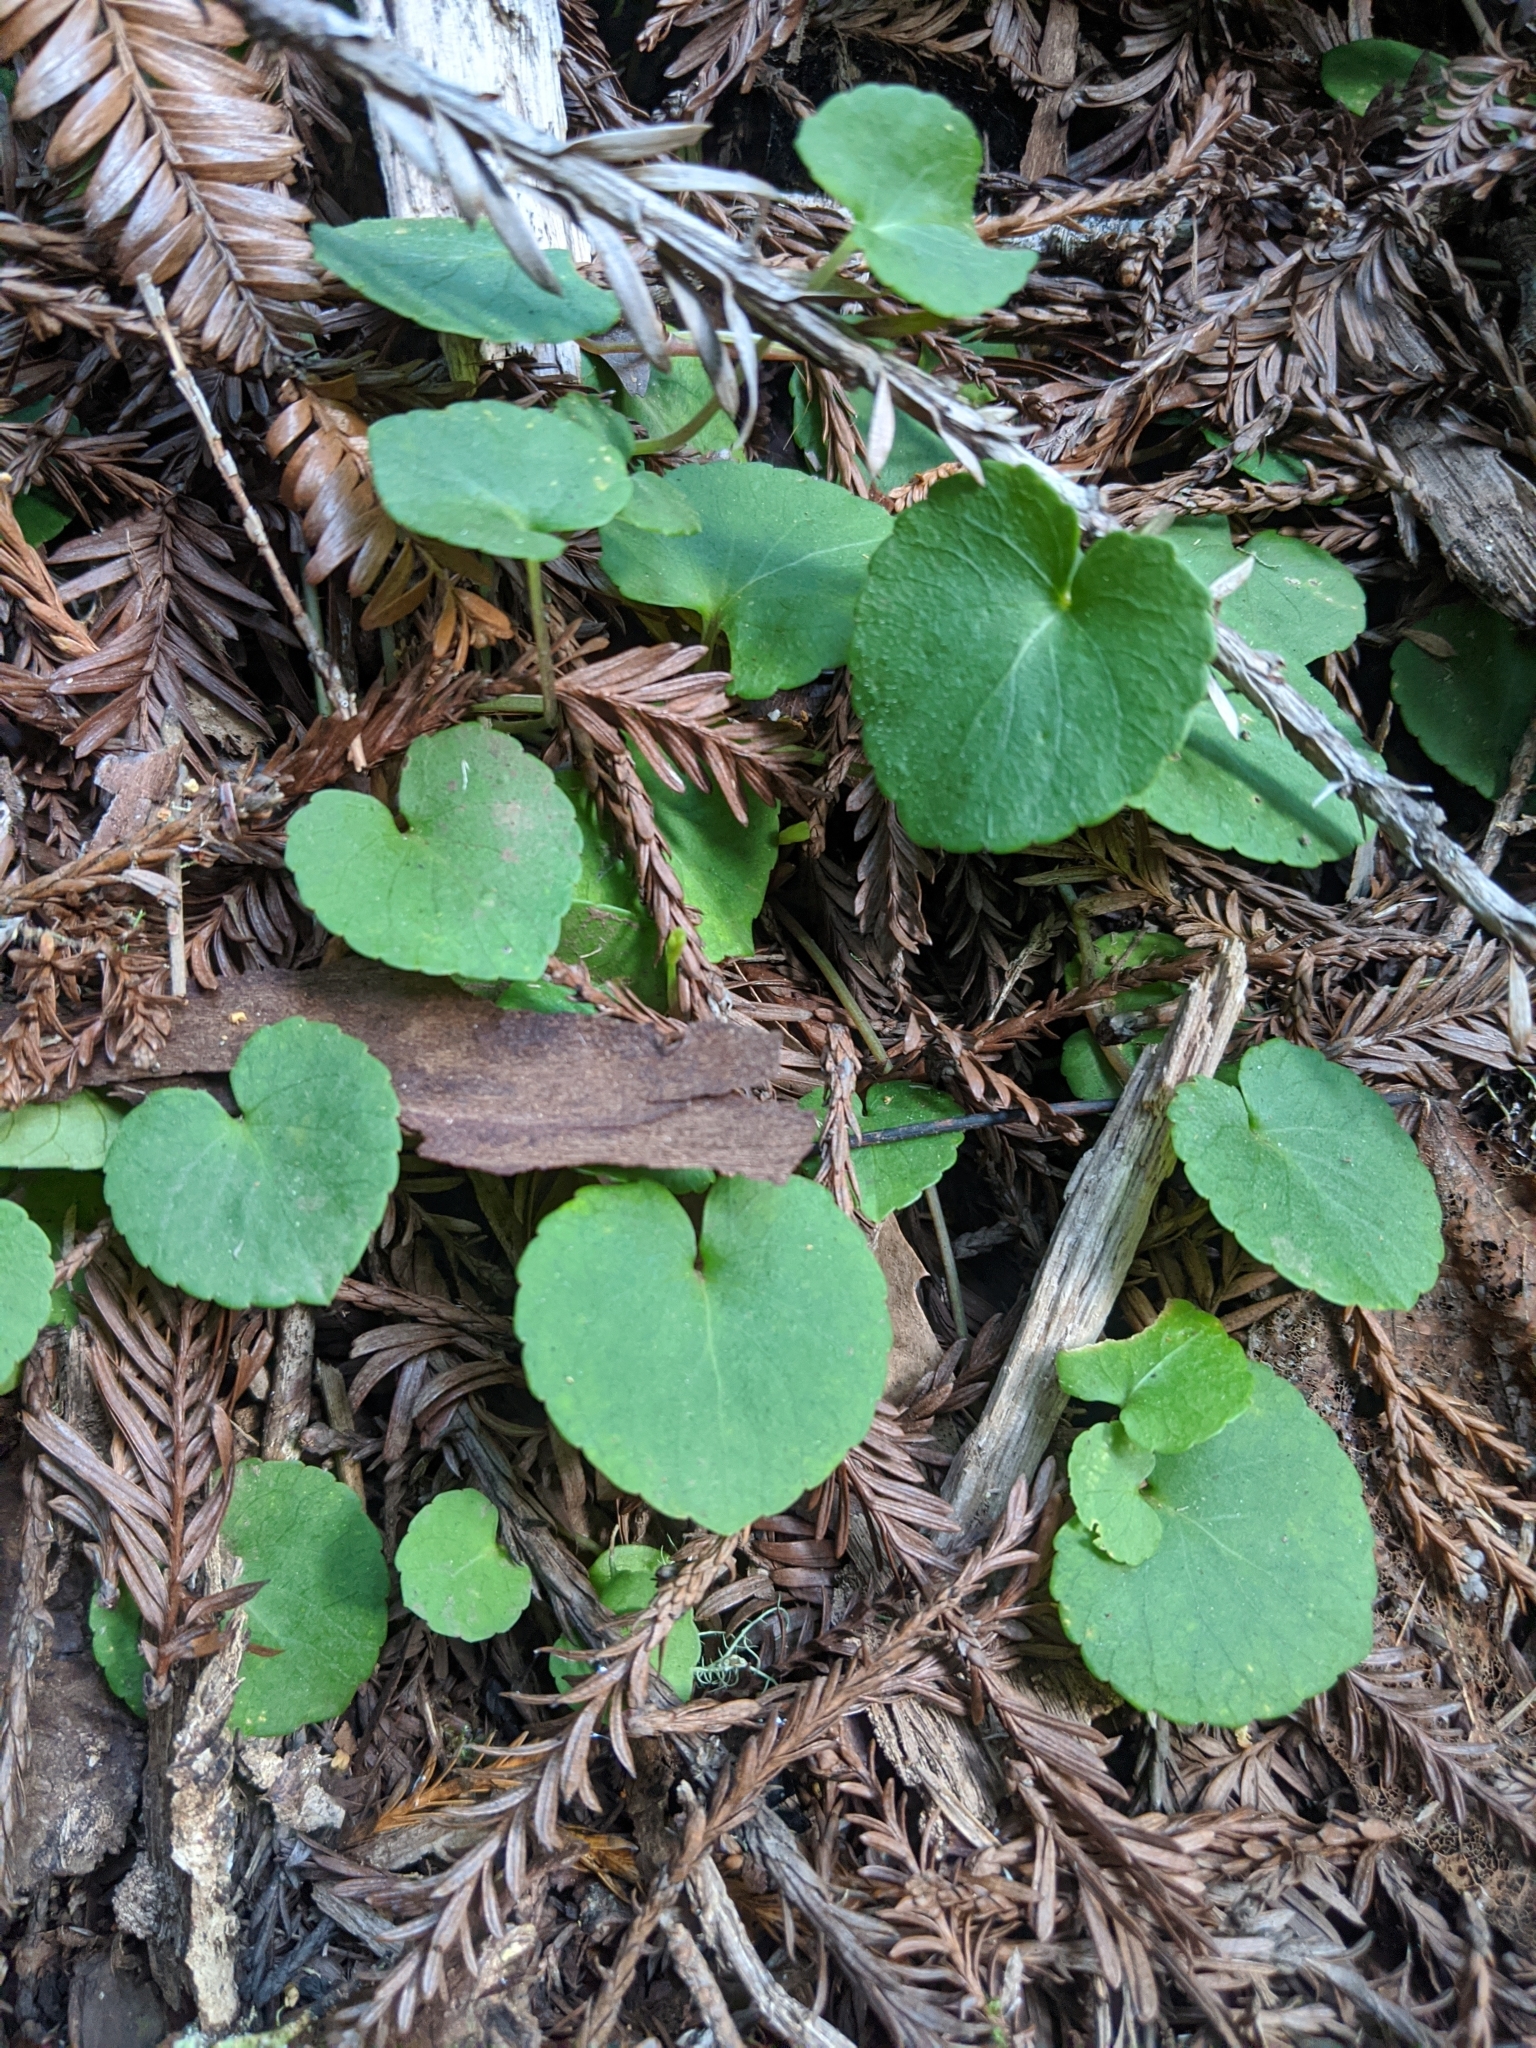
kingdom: Plantae
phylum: Tracheophyta
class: Magnoliopsida
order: Malpighiales
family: Violaceae
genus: Viola
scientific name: Viola sempervirens
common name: Evergreen violet
